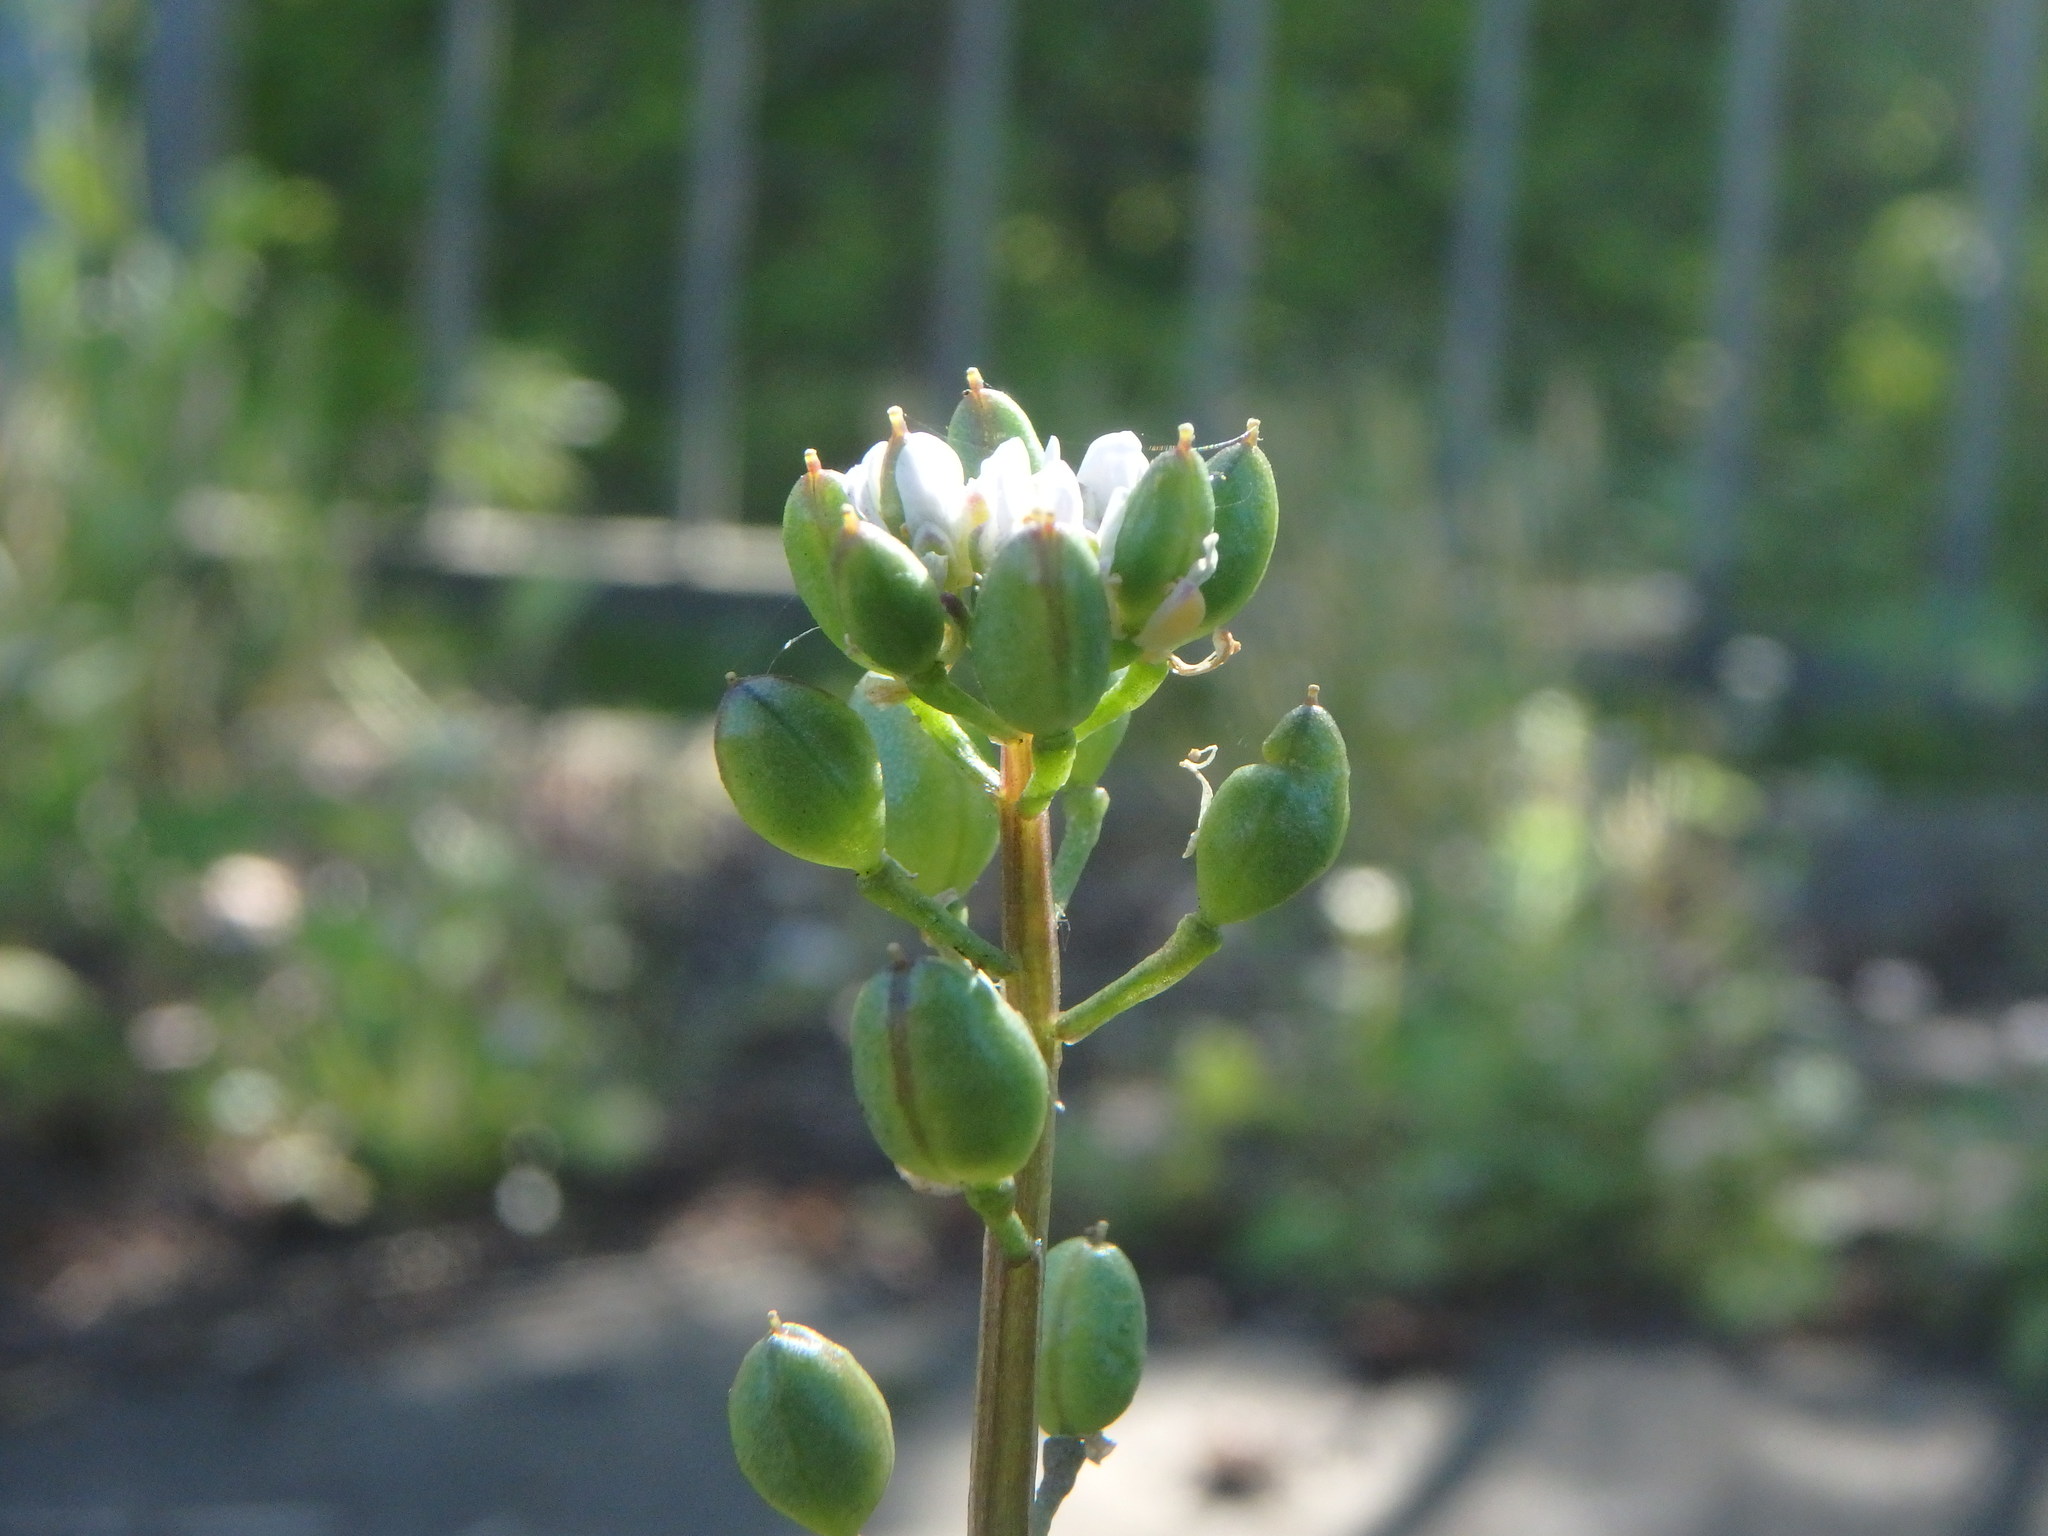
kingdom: Plantae
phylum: Tracheophyta
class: Magnoliopsida
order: Brassicales
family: Brassicaceae
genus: Cochlearia
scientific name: Cochlearia danica
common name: Early scurvygrass
